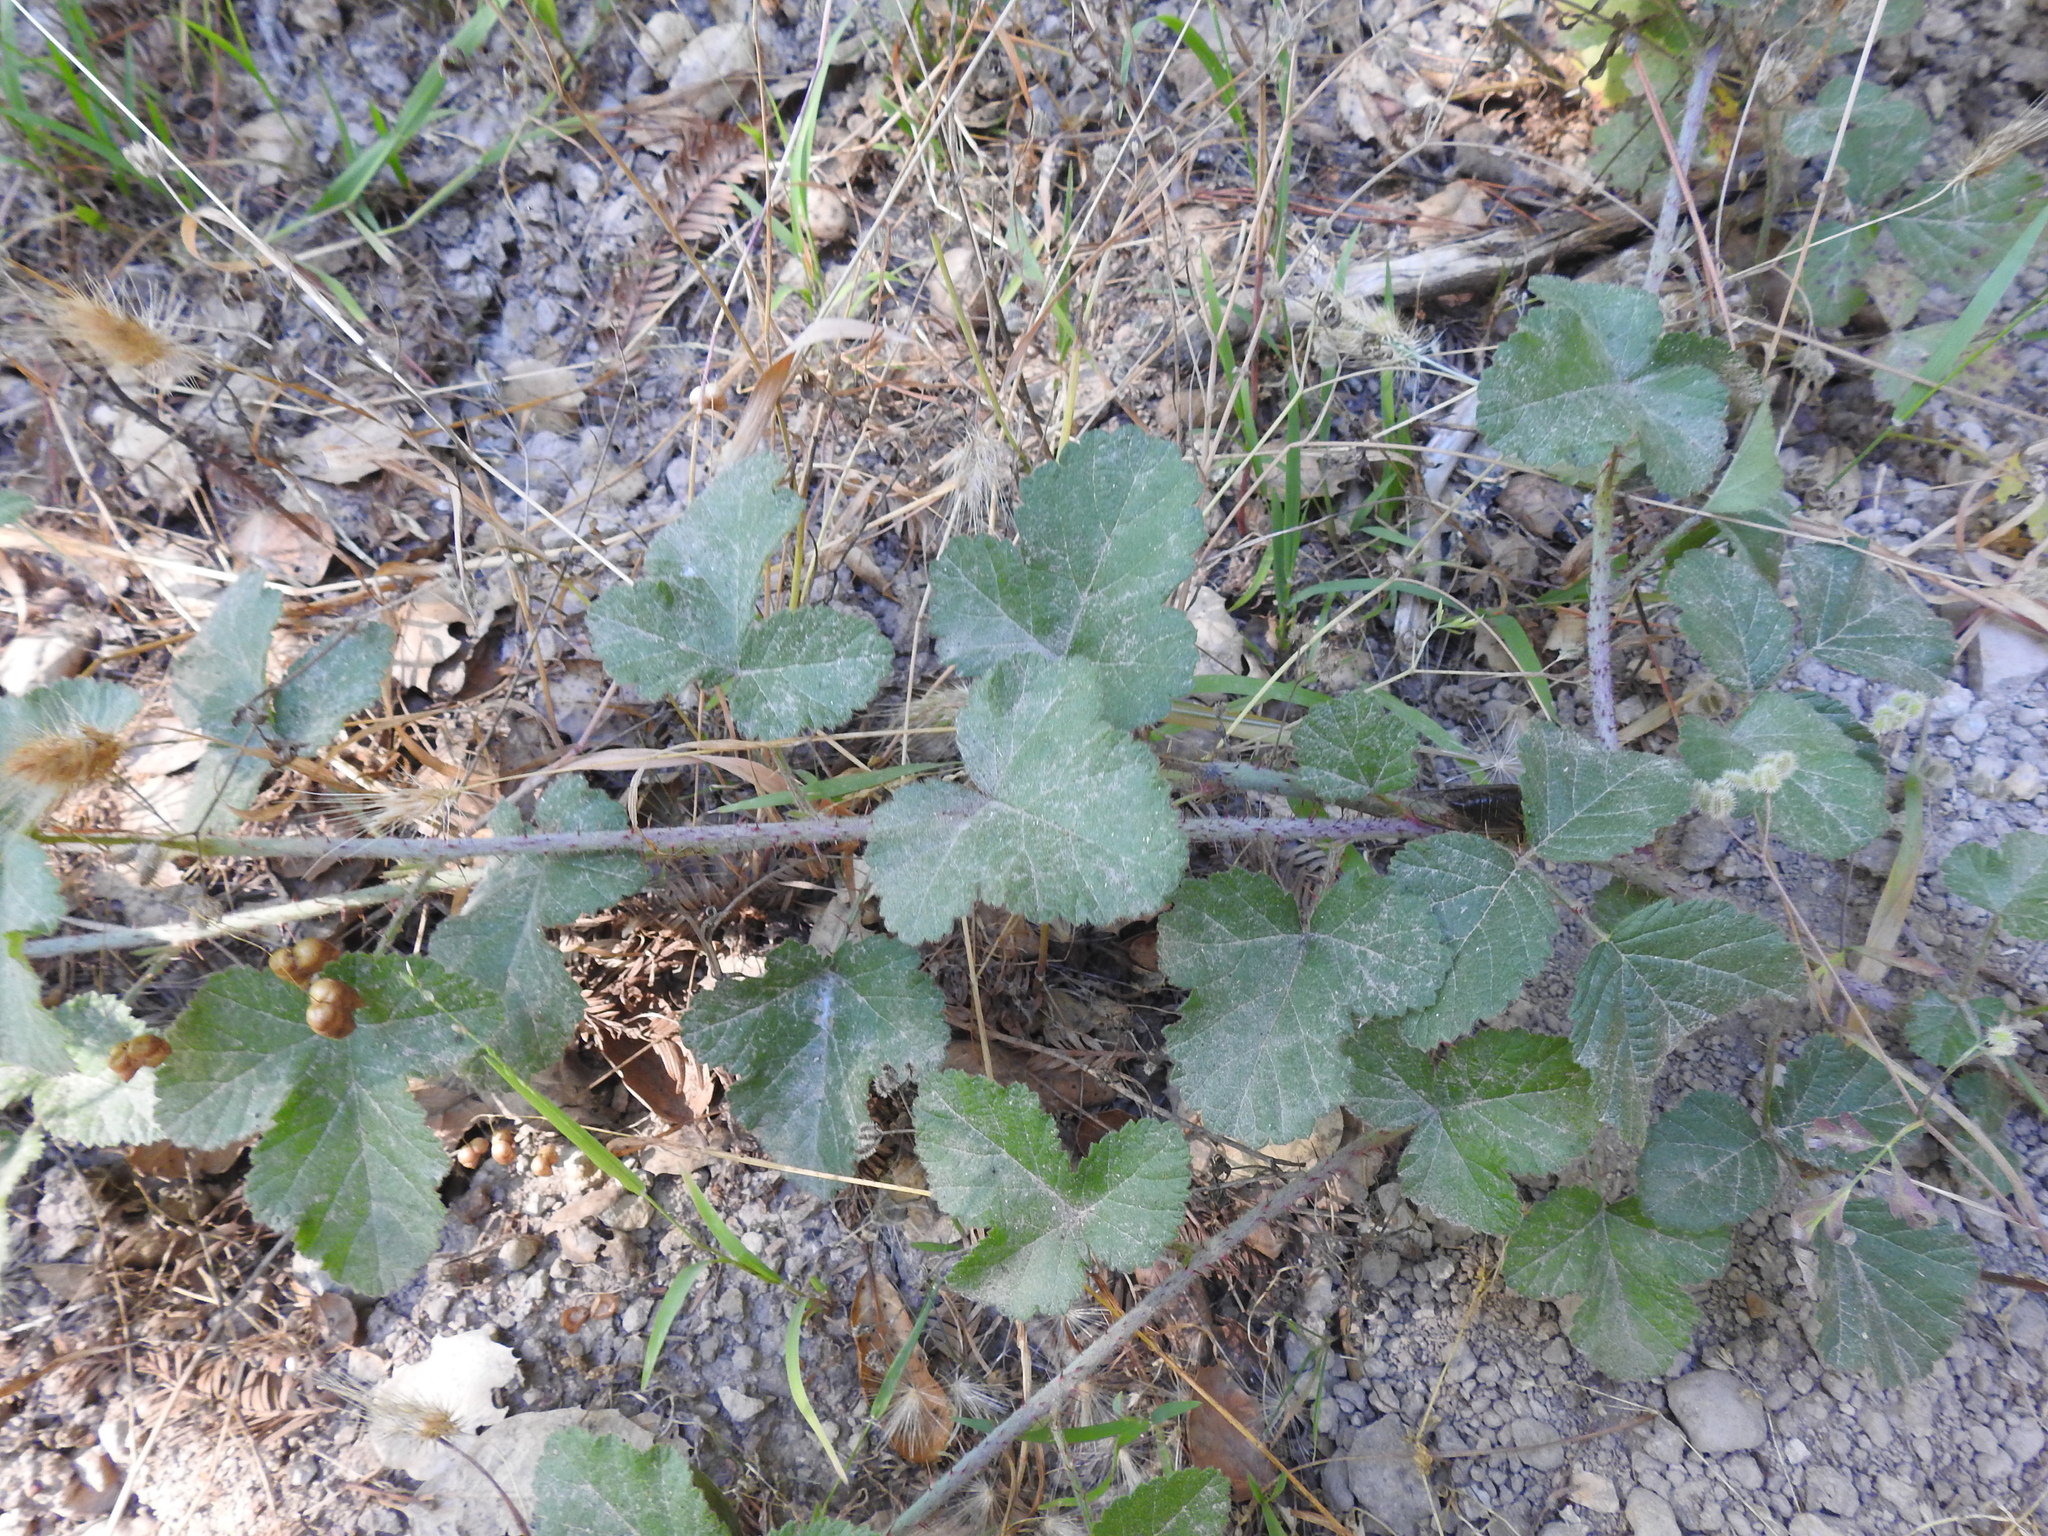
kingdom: Plantae
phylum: Tracheophyta
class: Magnoliopsida
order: Rosales
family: Rosaceae
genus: Rubus
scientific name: Rubus ursinus
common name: Pacific blackberry
